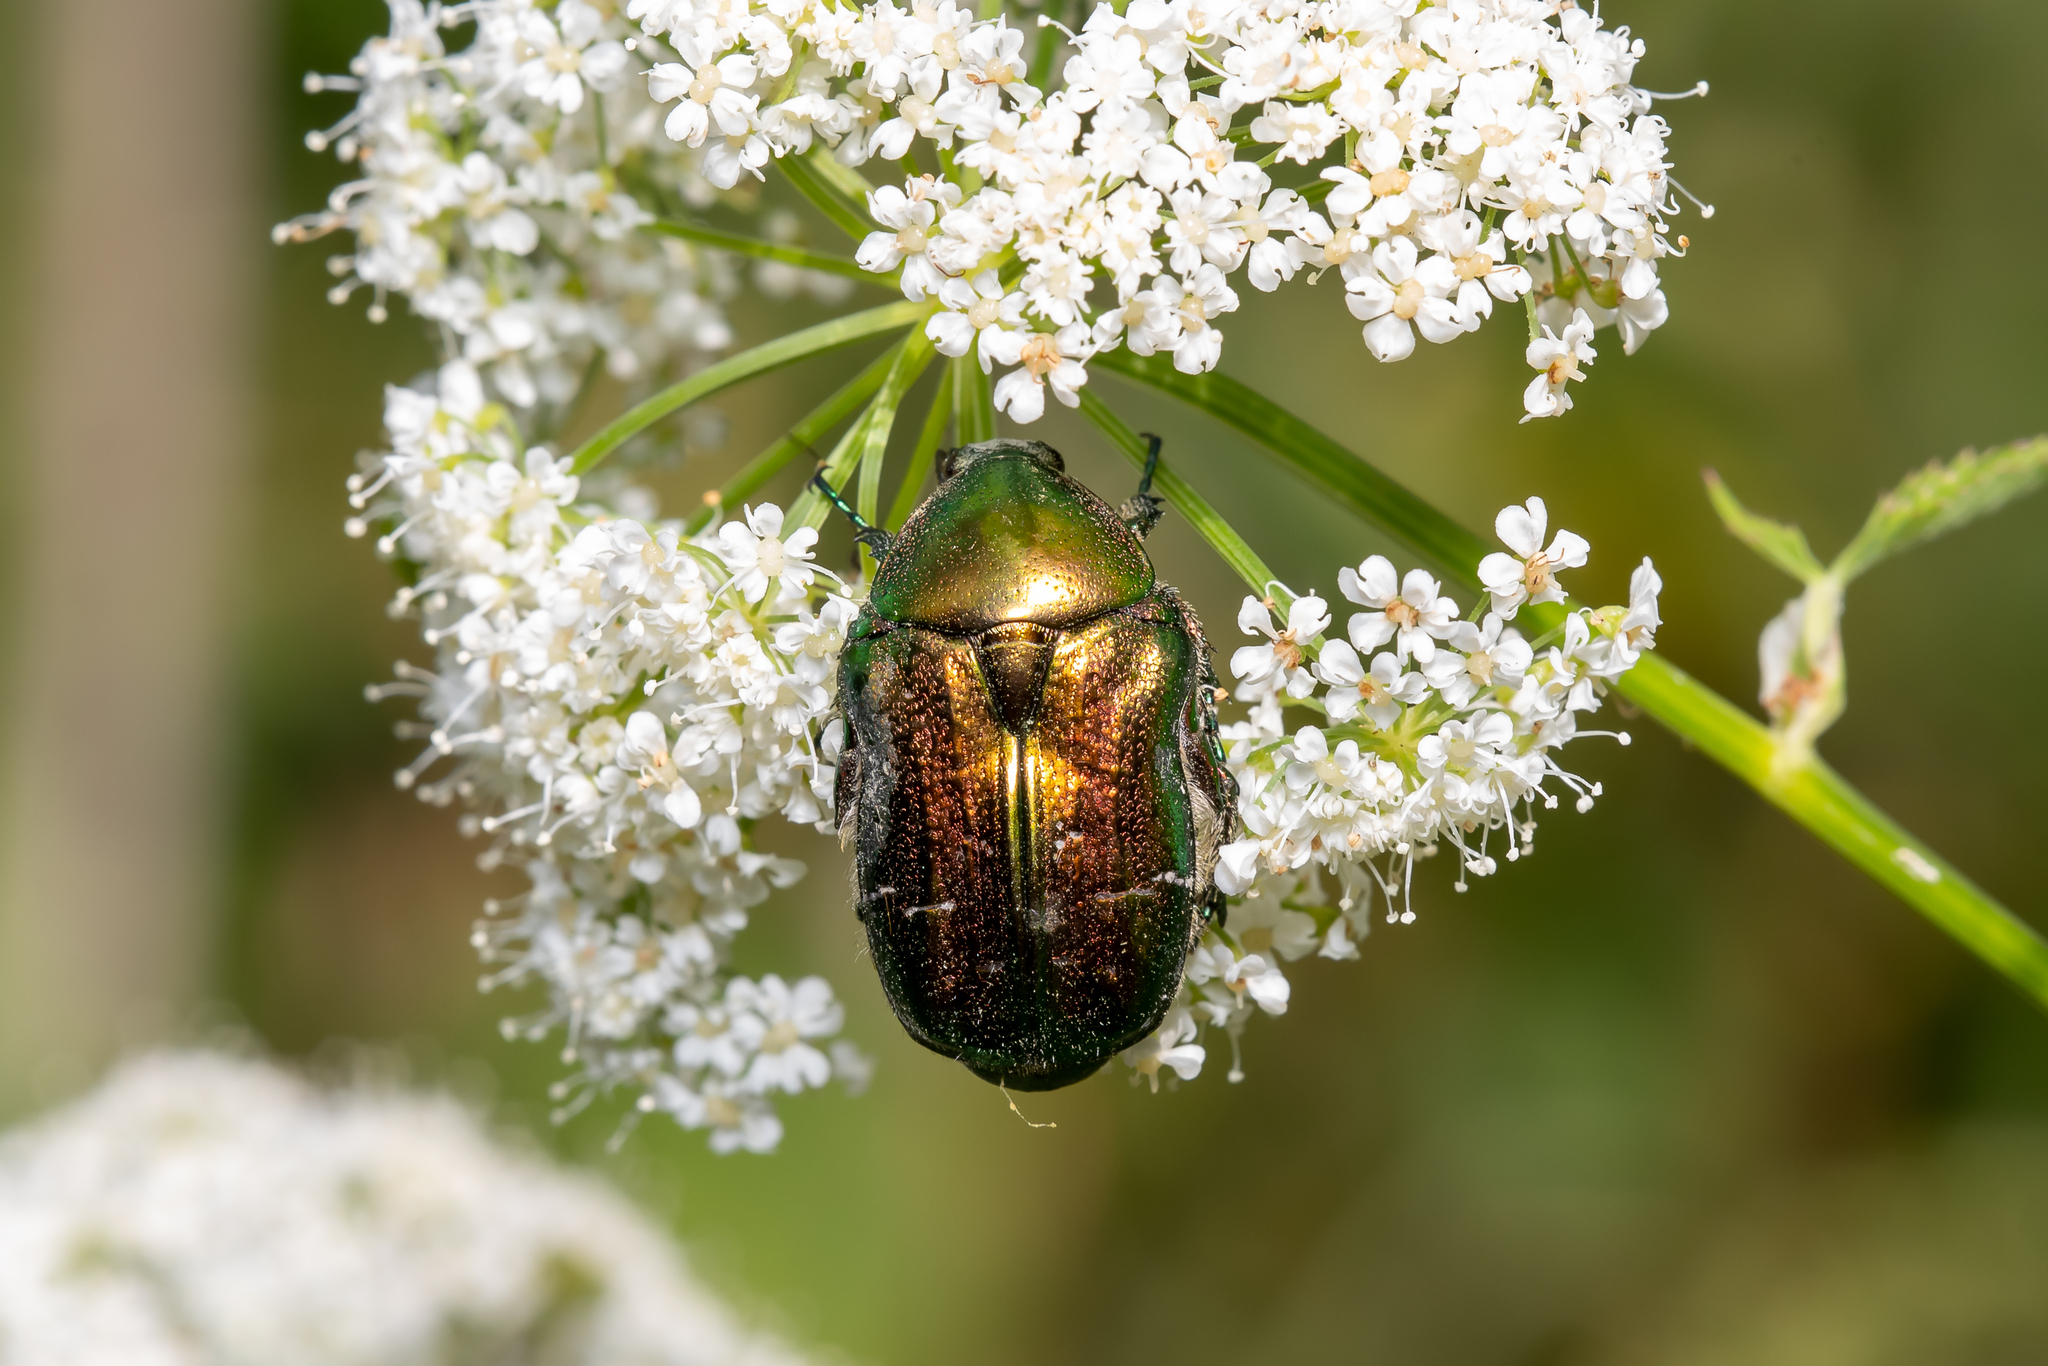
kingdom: Animalia
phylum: Arthropoda
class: Insecta
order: Coleoptera
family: Scarabaeidae
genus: Cetonia
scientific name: Cetonia aurata
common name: Rose chafer
